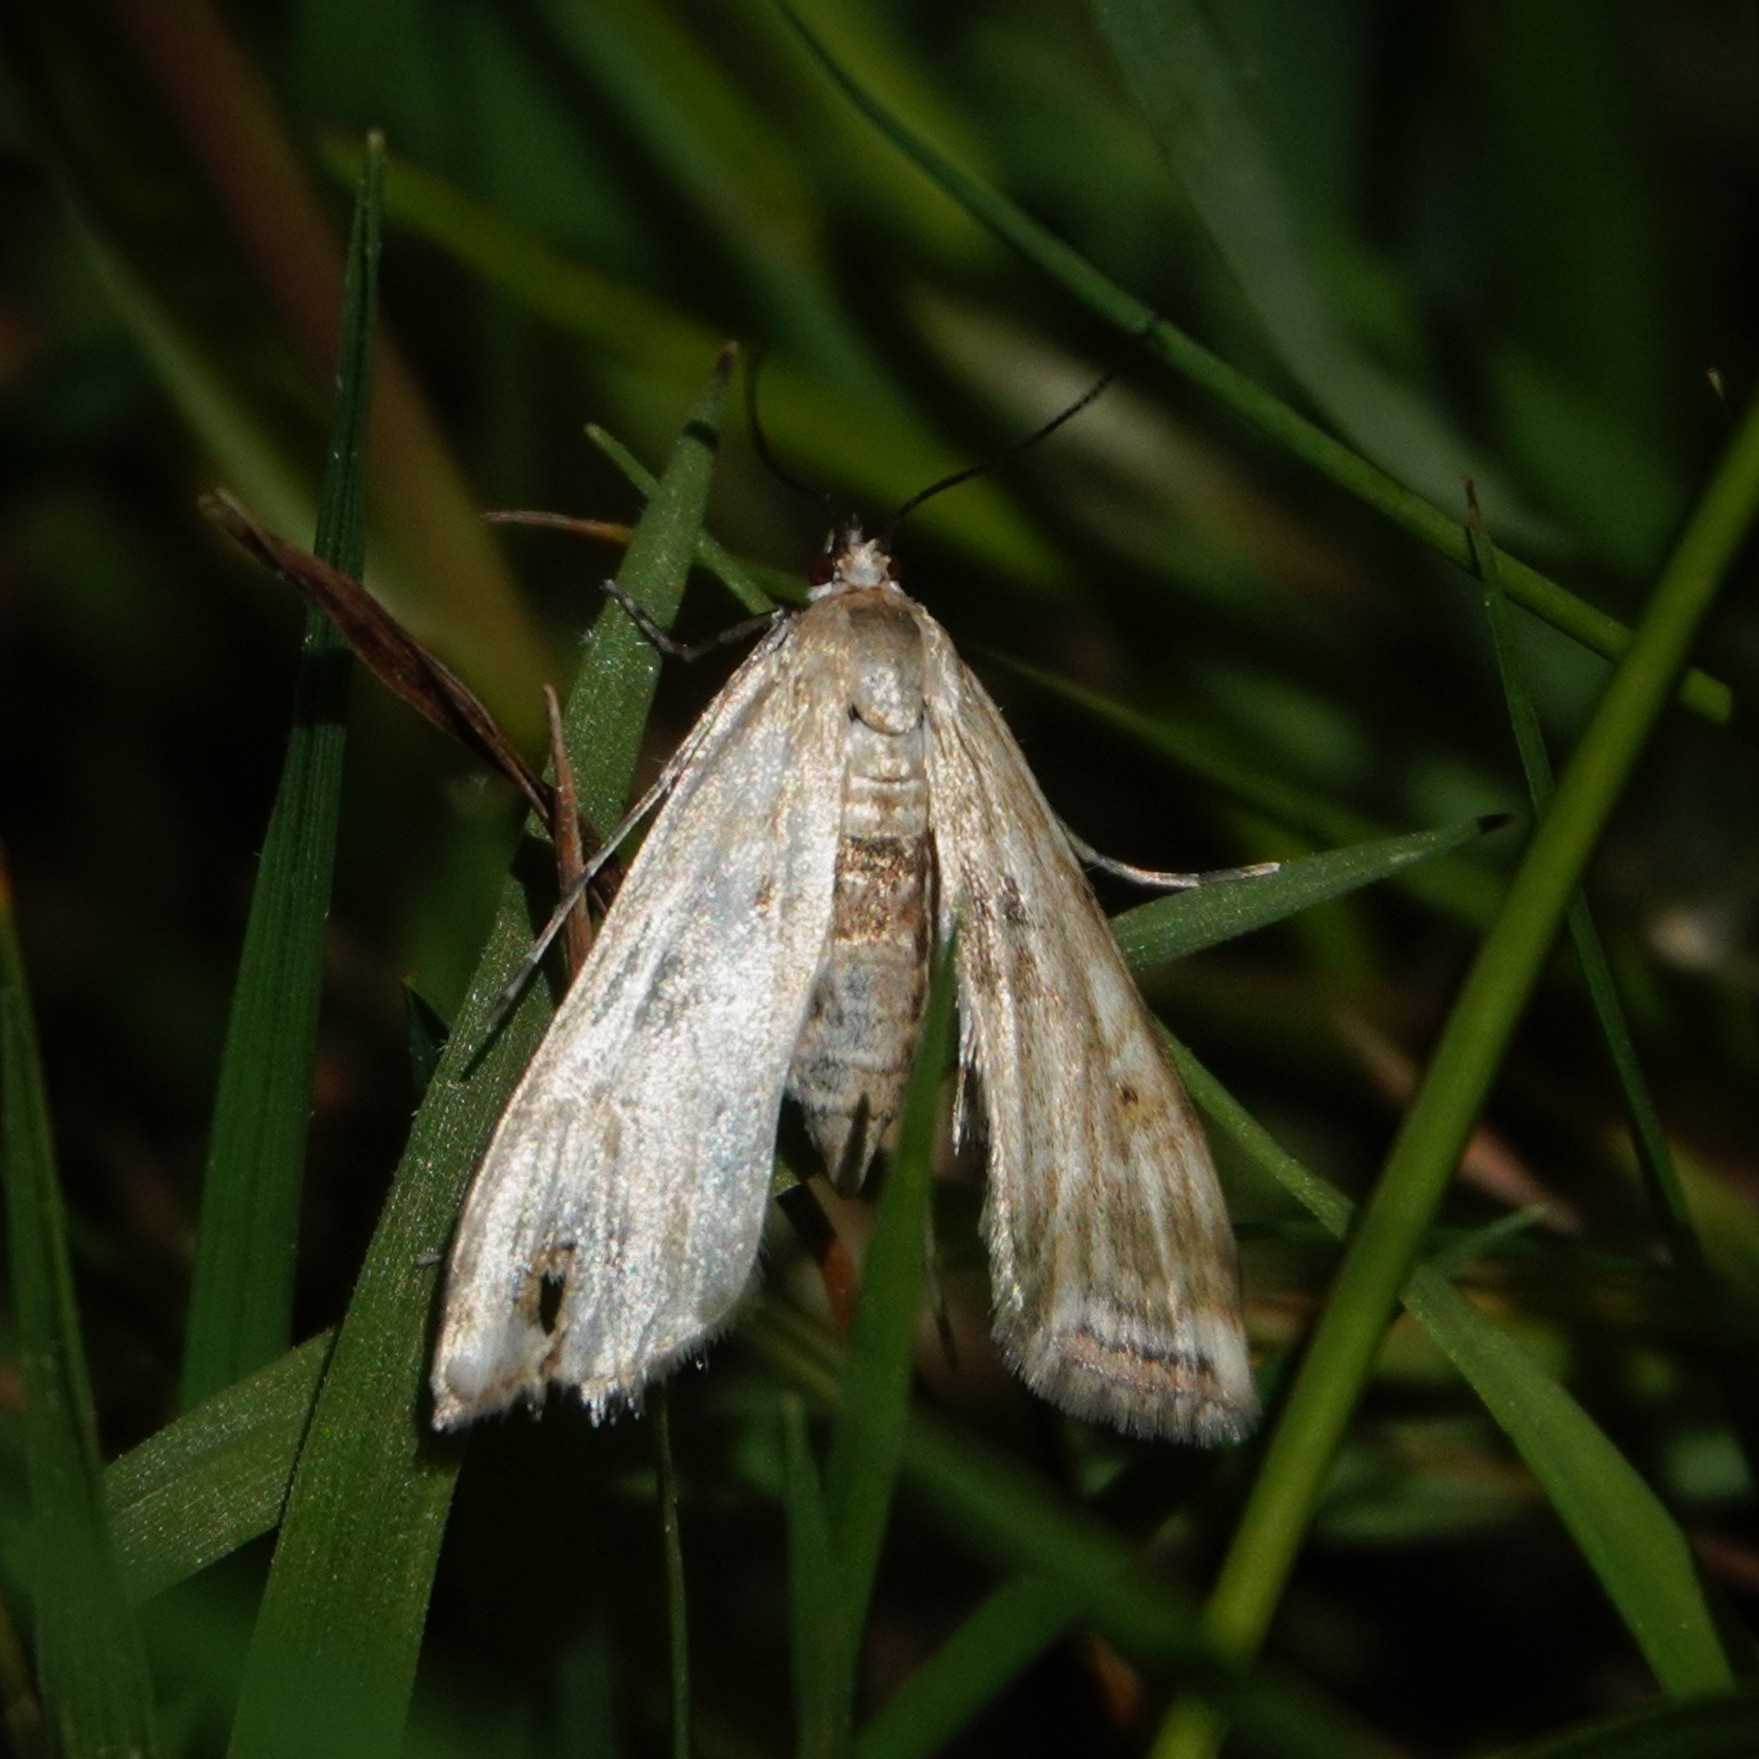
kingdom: Animalia
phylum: Arthropoda
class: Insecta
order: Lepidoptera
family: Crambidae
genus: Cataclysta
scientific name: Cataclysta lemnata
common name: Small china-mark
